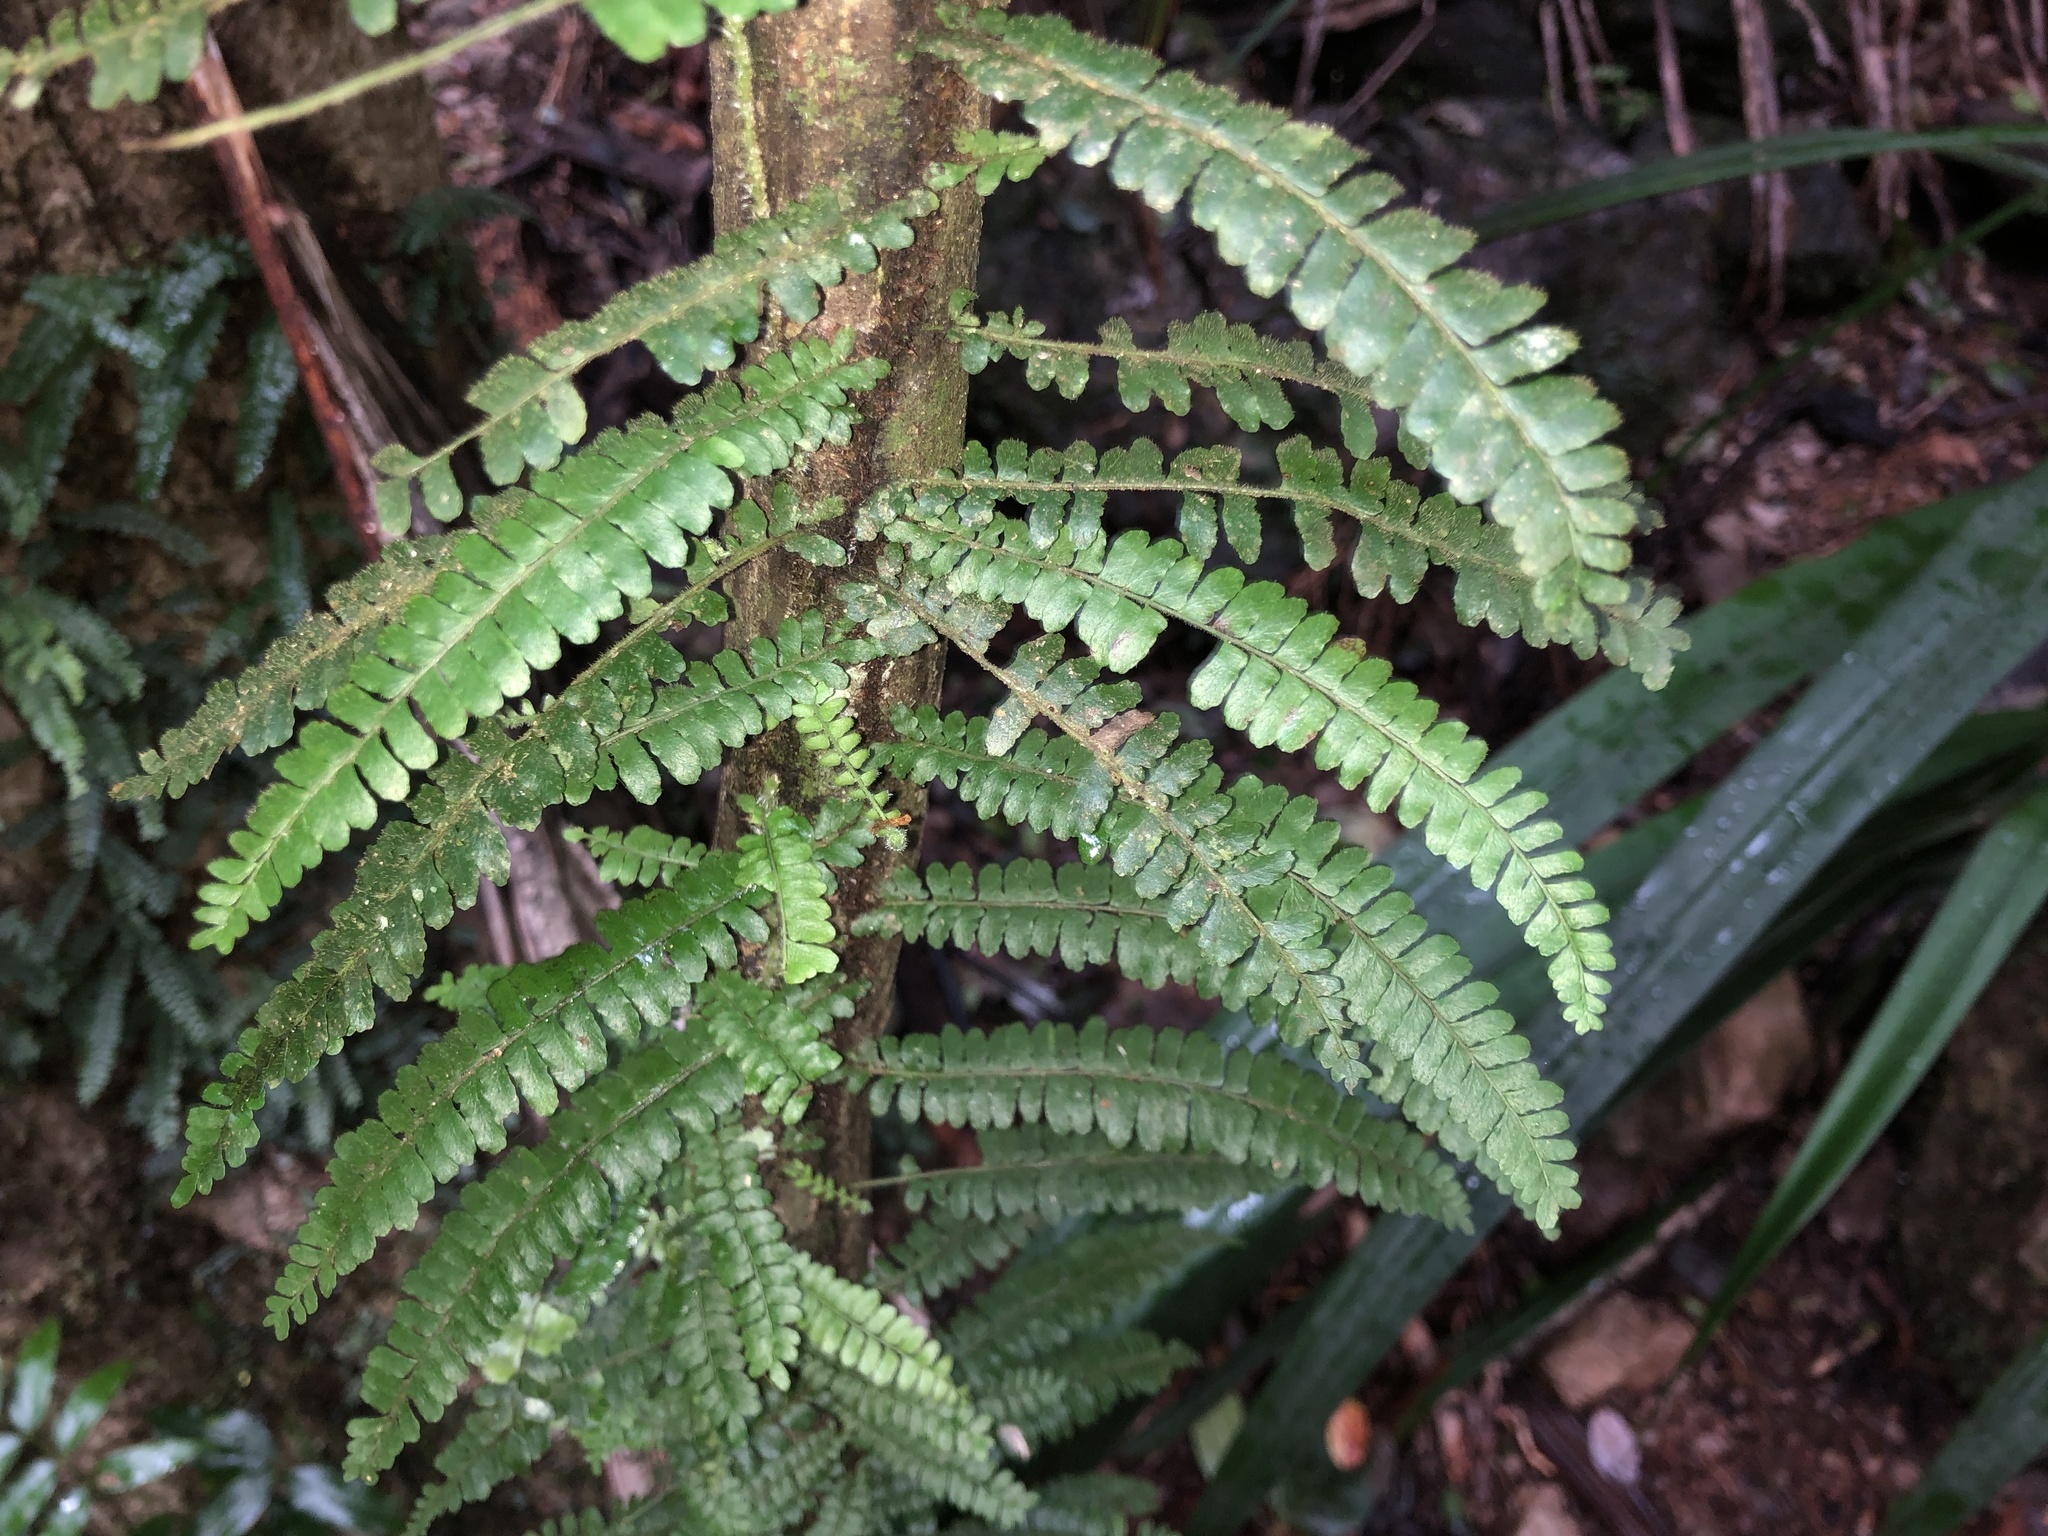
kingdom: Plantae
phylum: Tracheophyta
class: Polypodiopsida
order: Polypodiales
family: Tectariaceae
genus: Arthropteris
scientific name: Arthropteris beckleri
